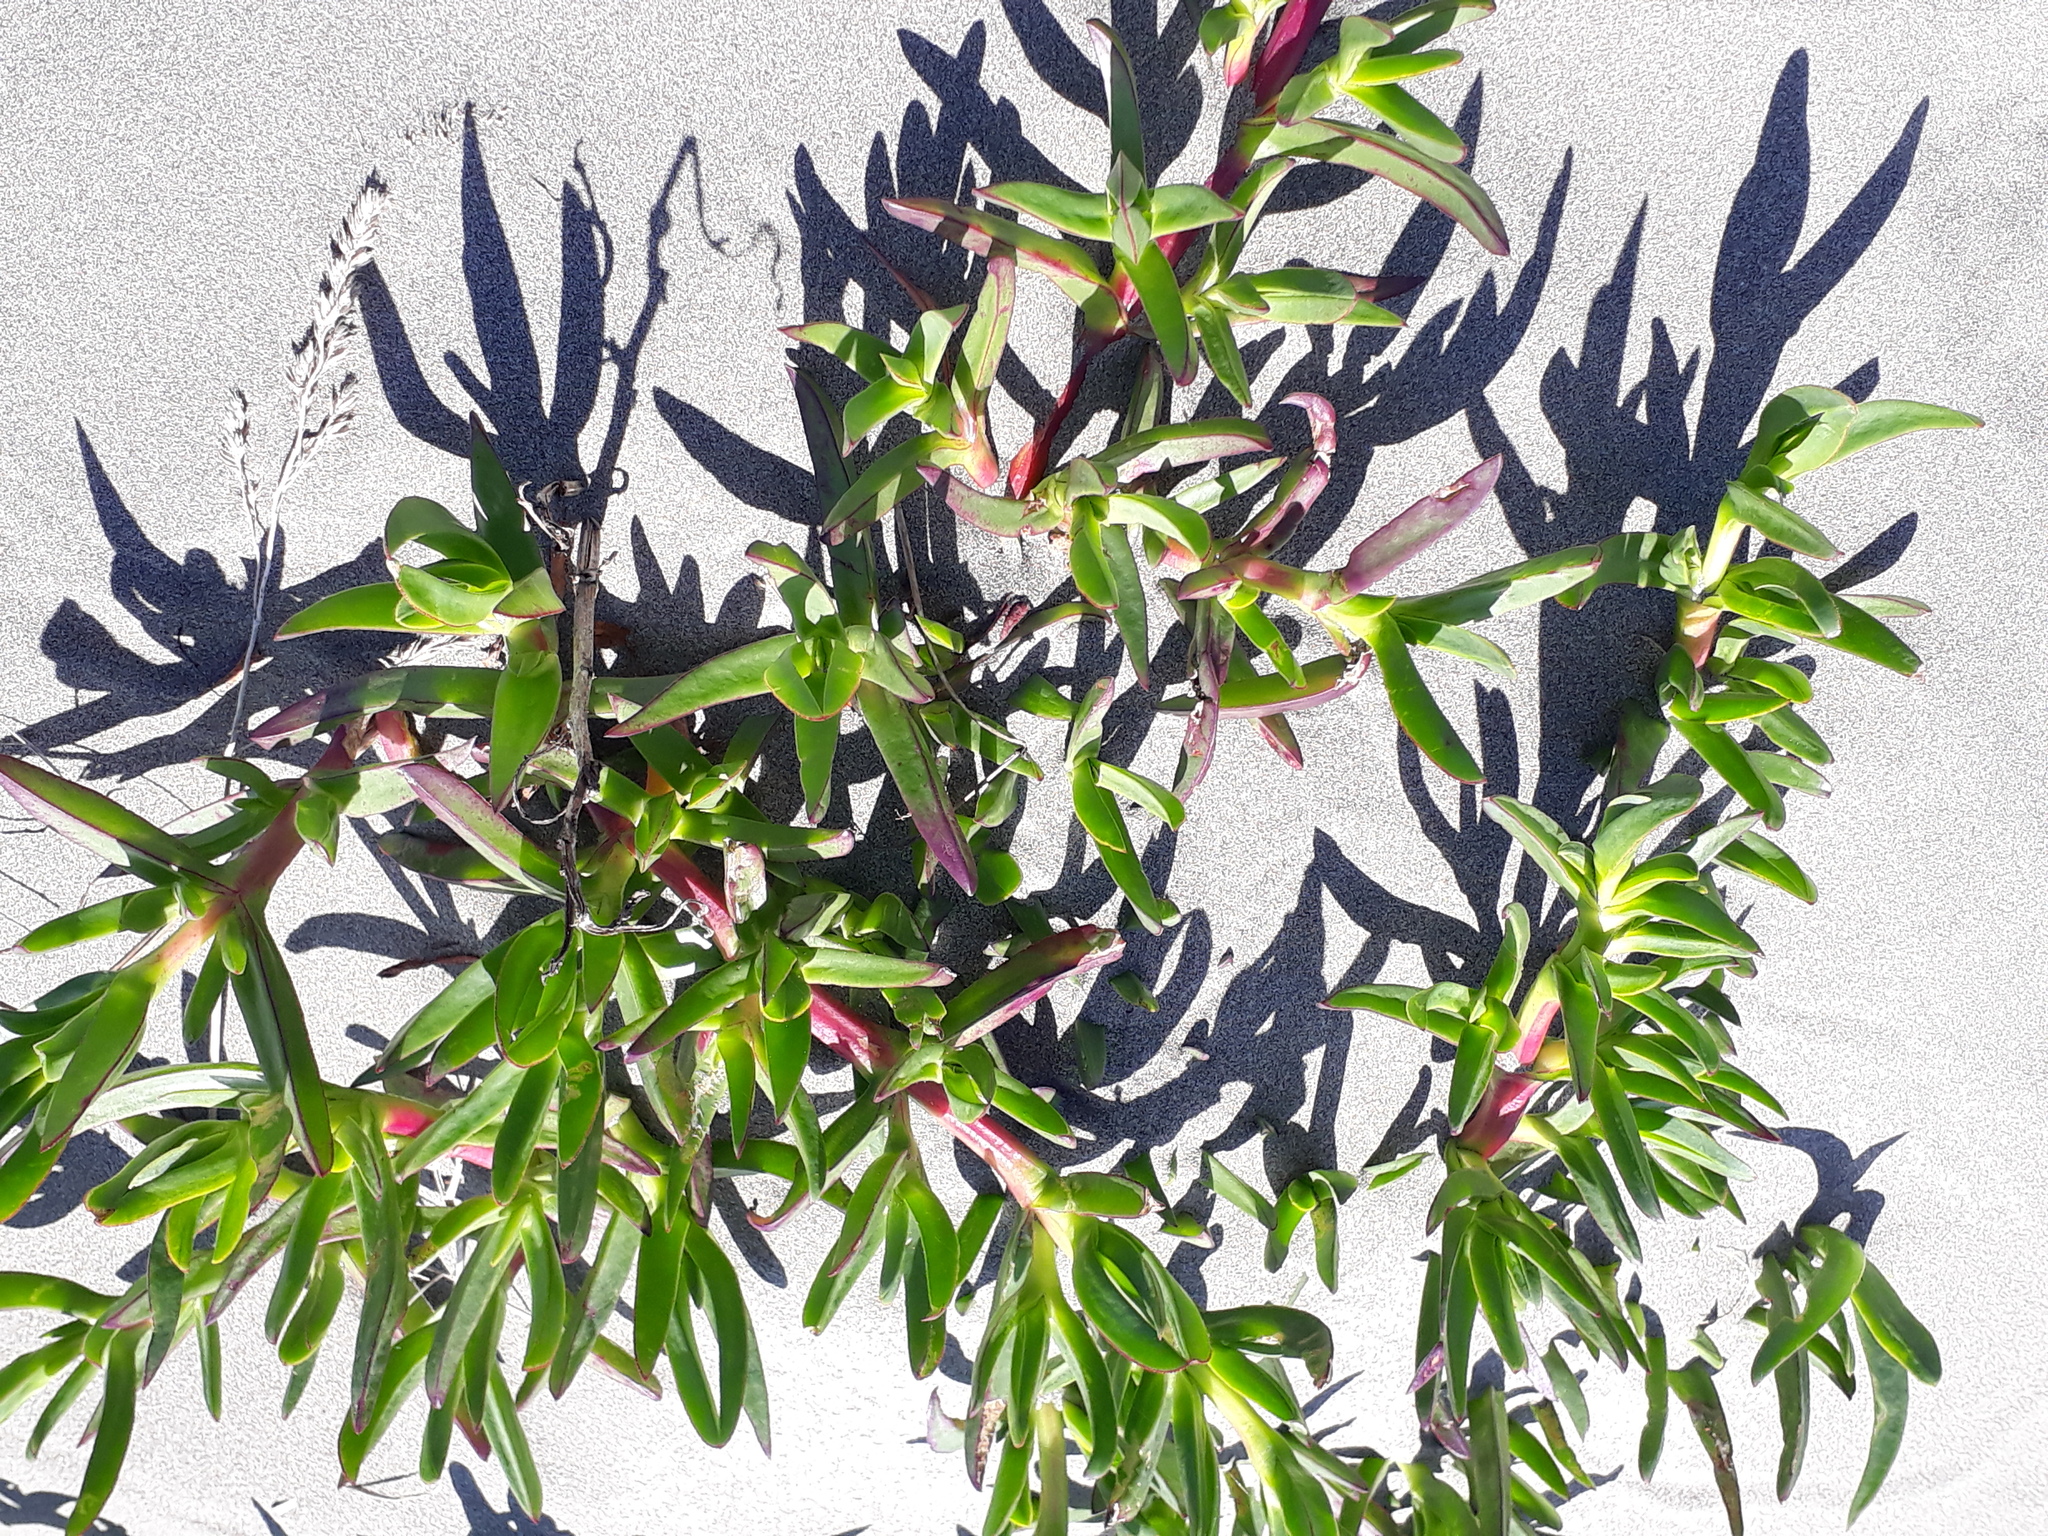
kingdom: Plantae
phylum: Tracheophyta
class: Magnoliopsida
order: Caryophyllales
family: Aizoaceae
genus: Carpobrotus
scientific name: Carpobrotus edulis
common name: Hottentot-fig
